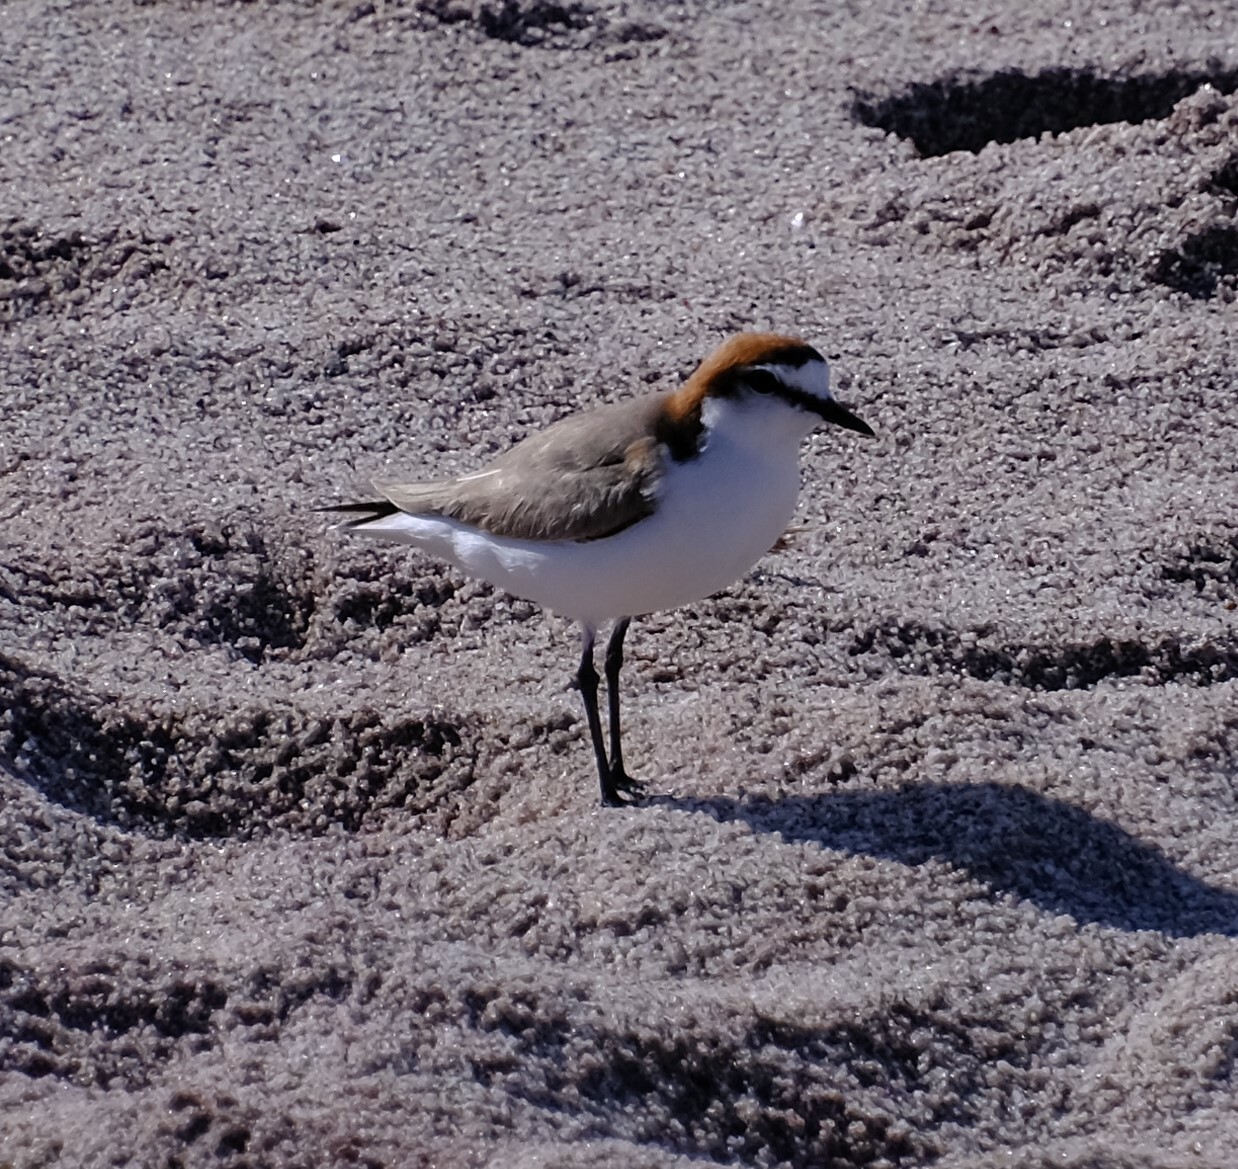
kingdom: Animalia
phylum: Chordata
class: Aves
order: Charadriiformes
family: Charadriidae
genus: Anarhynchus
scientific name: Anarhynchus
